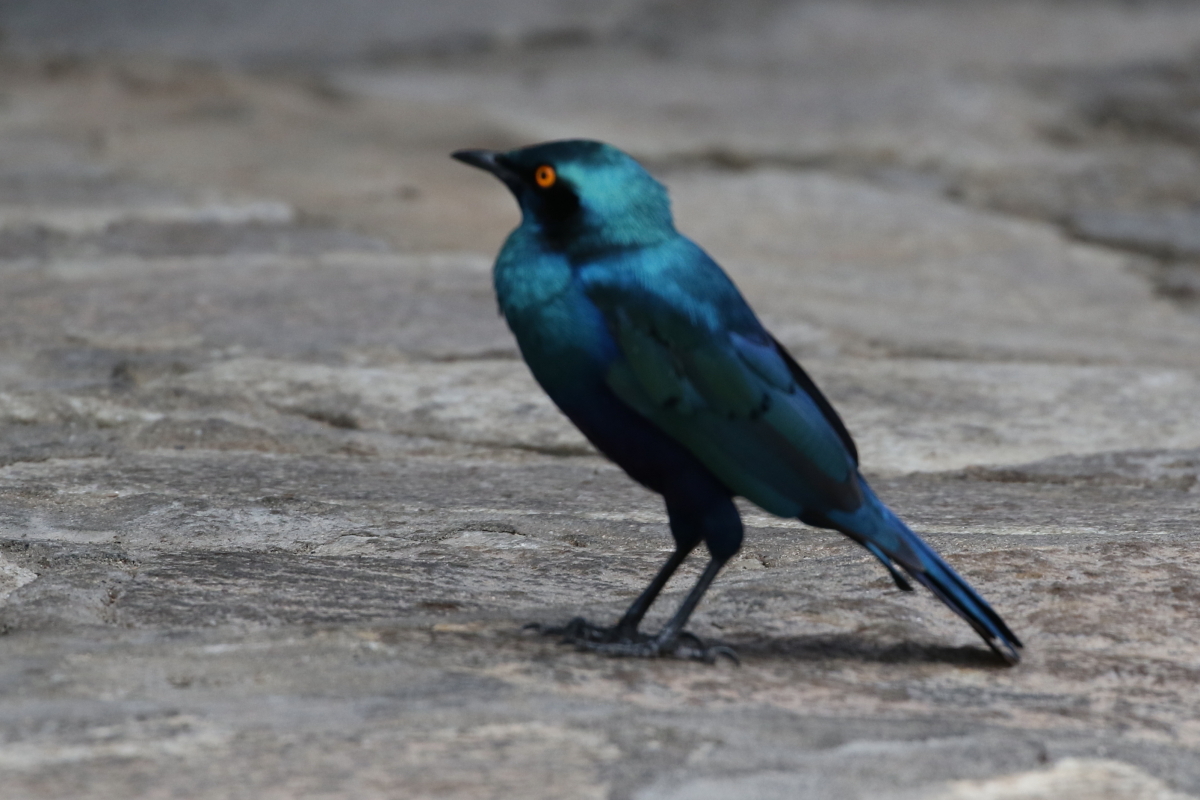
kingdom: Animalia
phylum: Chordata
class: Aves
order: Passeriformes
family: Sturnidae
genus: Lamprotornis
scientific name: Lamprotornis chalybaeus
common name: Greater blue-eared starling
